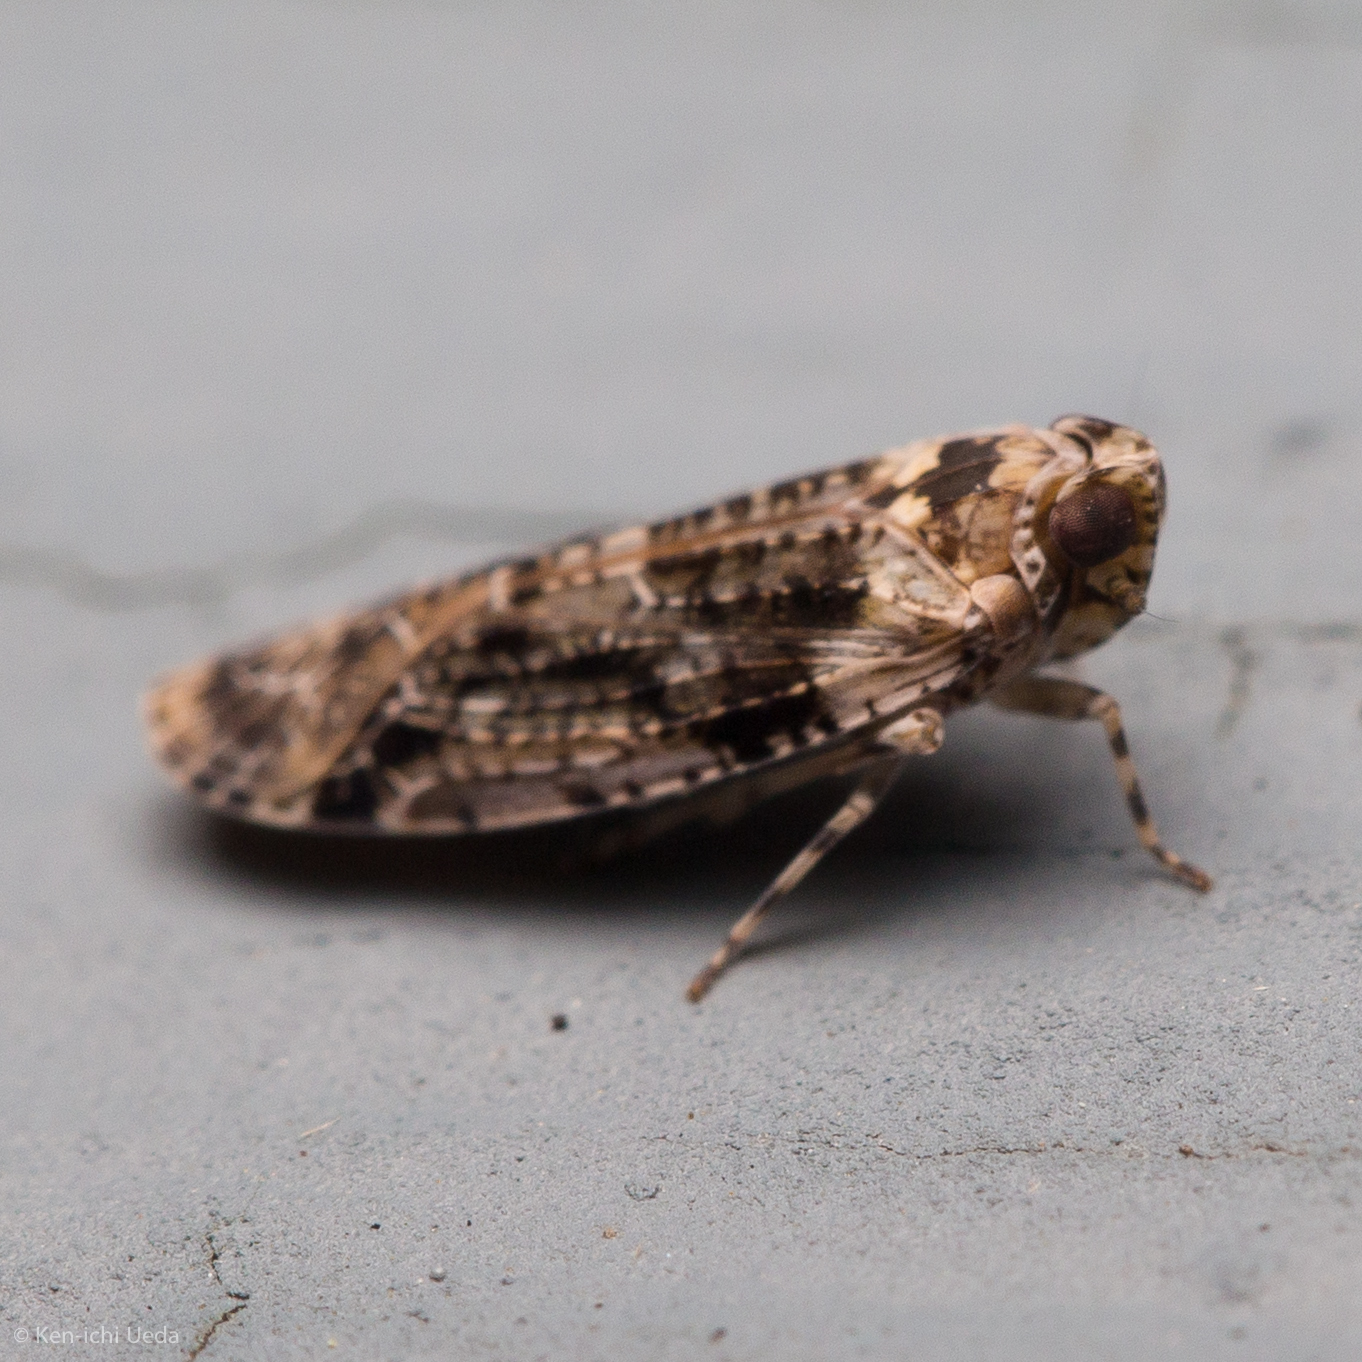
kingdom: Animalia
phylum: Arthropoda
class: Insecta
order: Hemiptera
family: Achilidae
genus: Catonia
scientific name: Catonia nava
